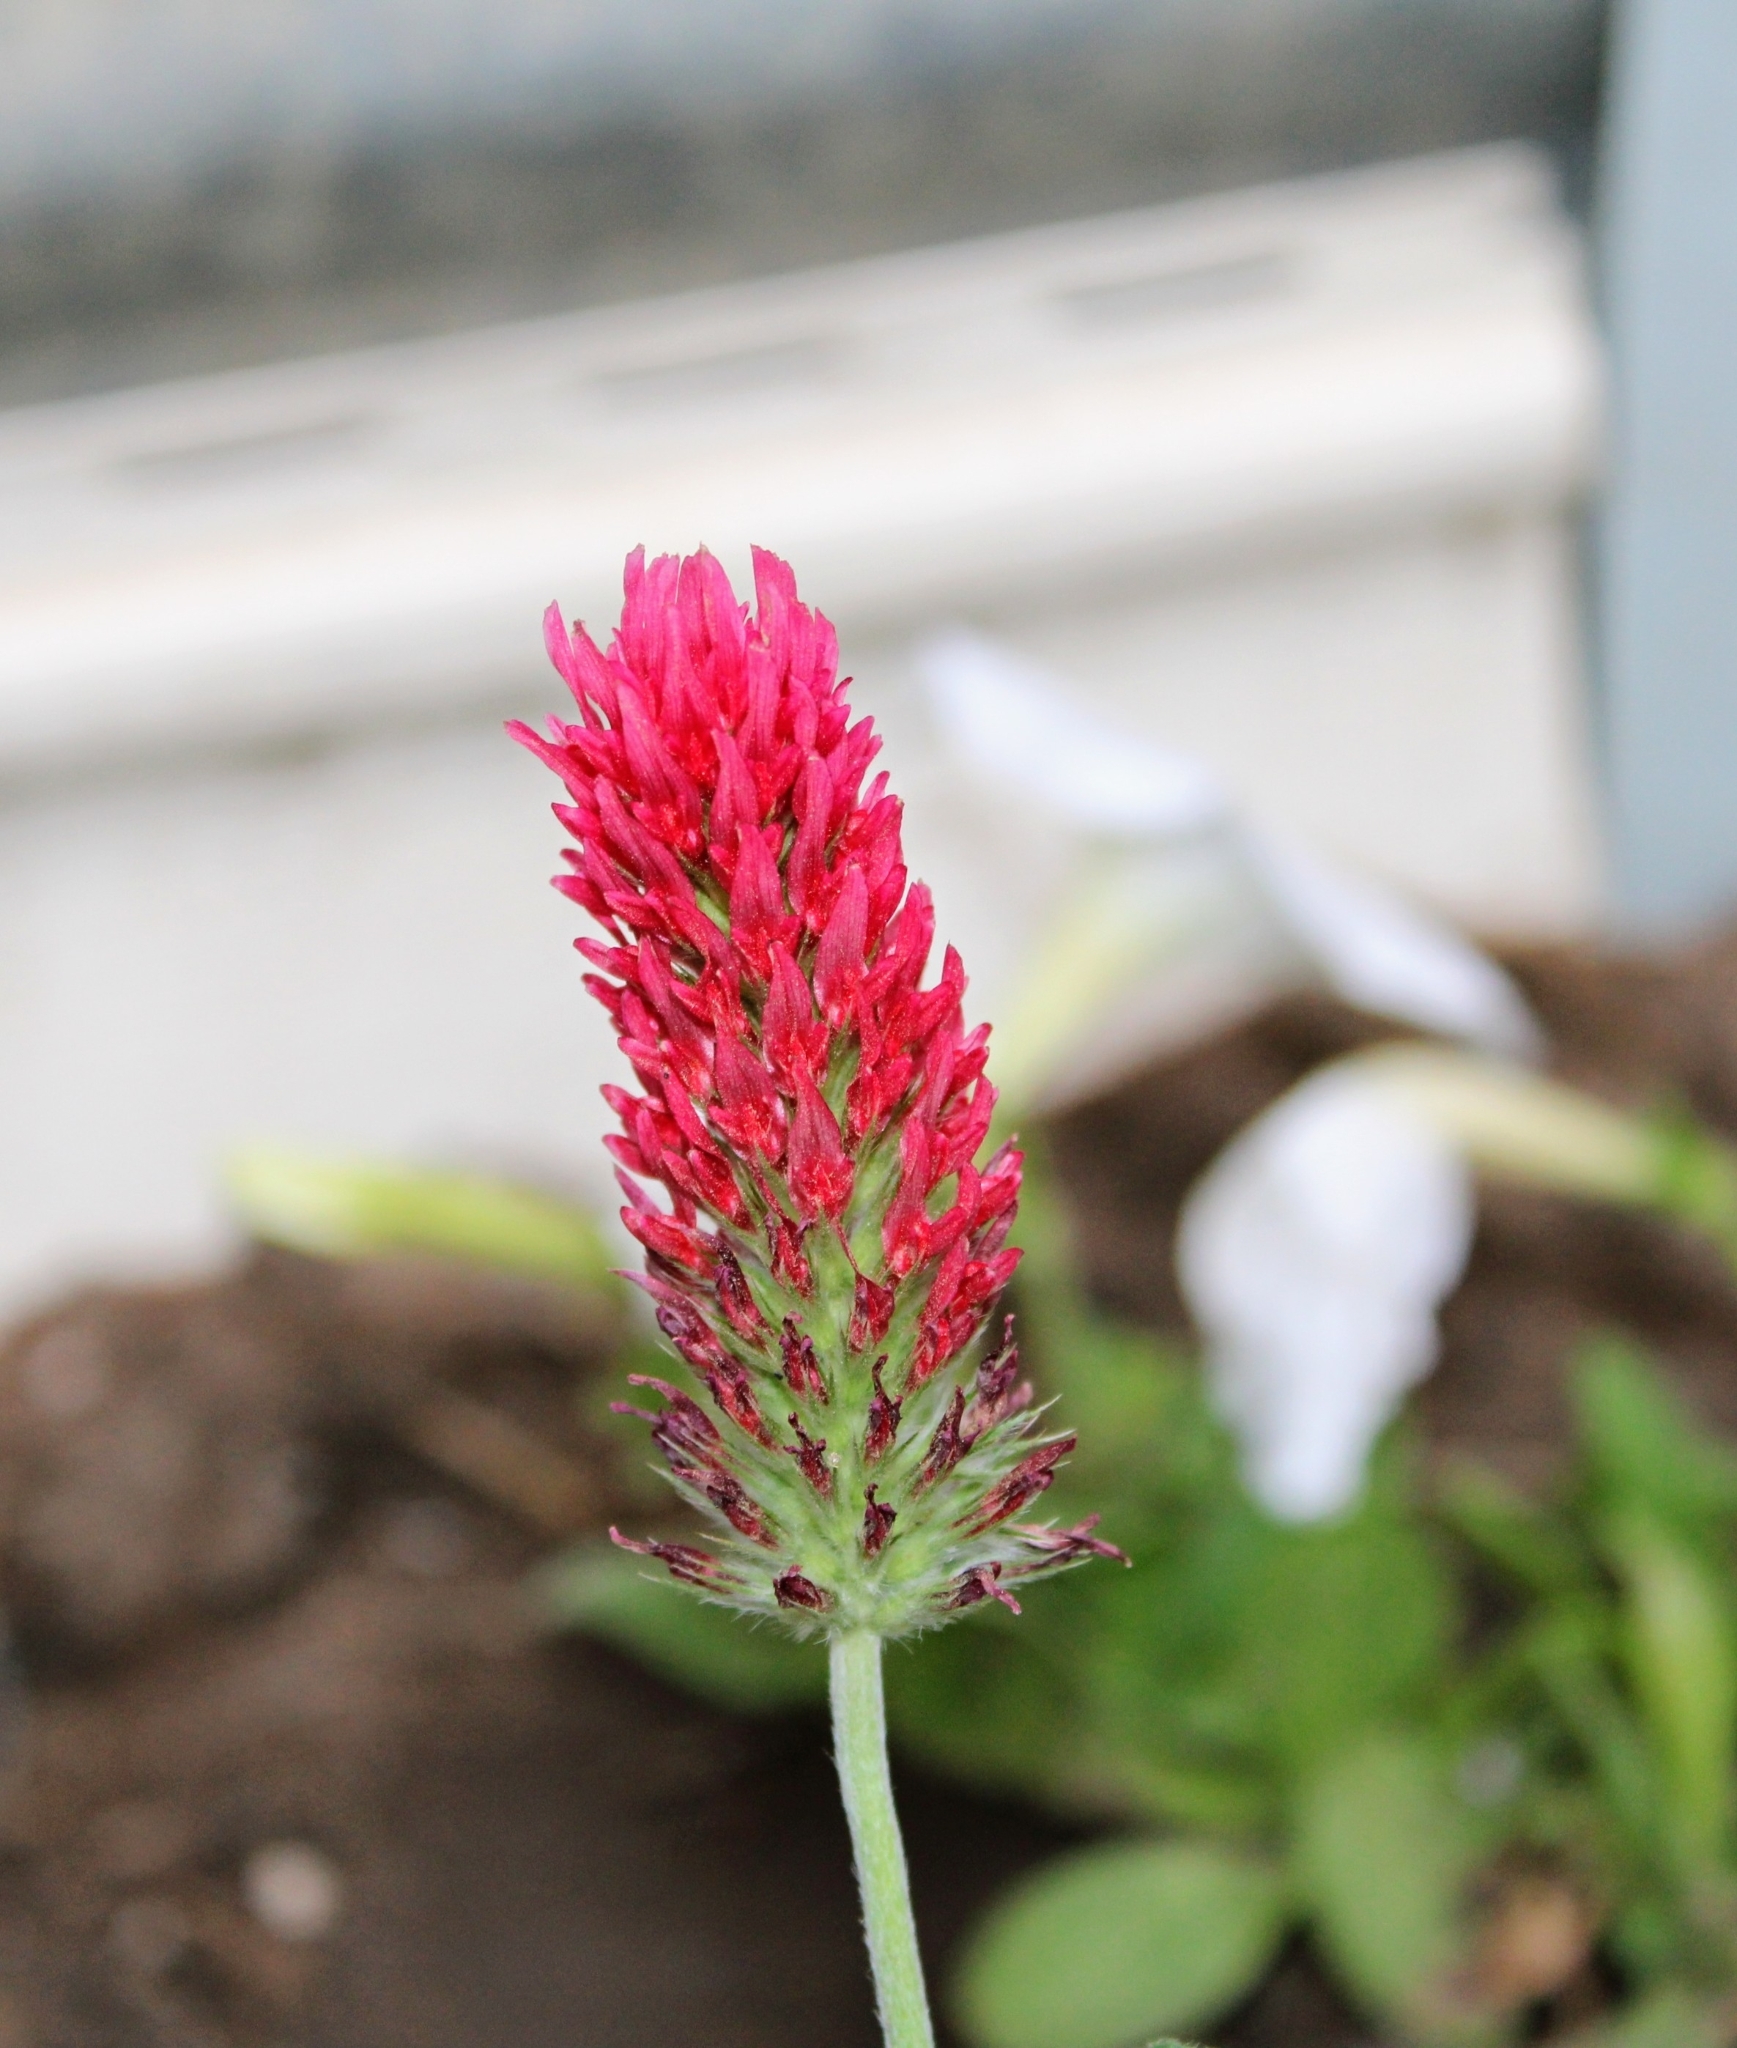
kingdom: Plantae
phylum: Tracheophyta
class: Magnoliopsida
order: Fabales
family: Fabaceae
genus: Trifolium
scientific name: Trifolium incarnatum
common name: Crimson clover
